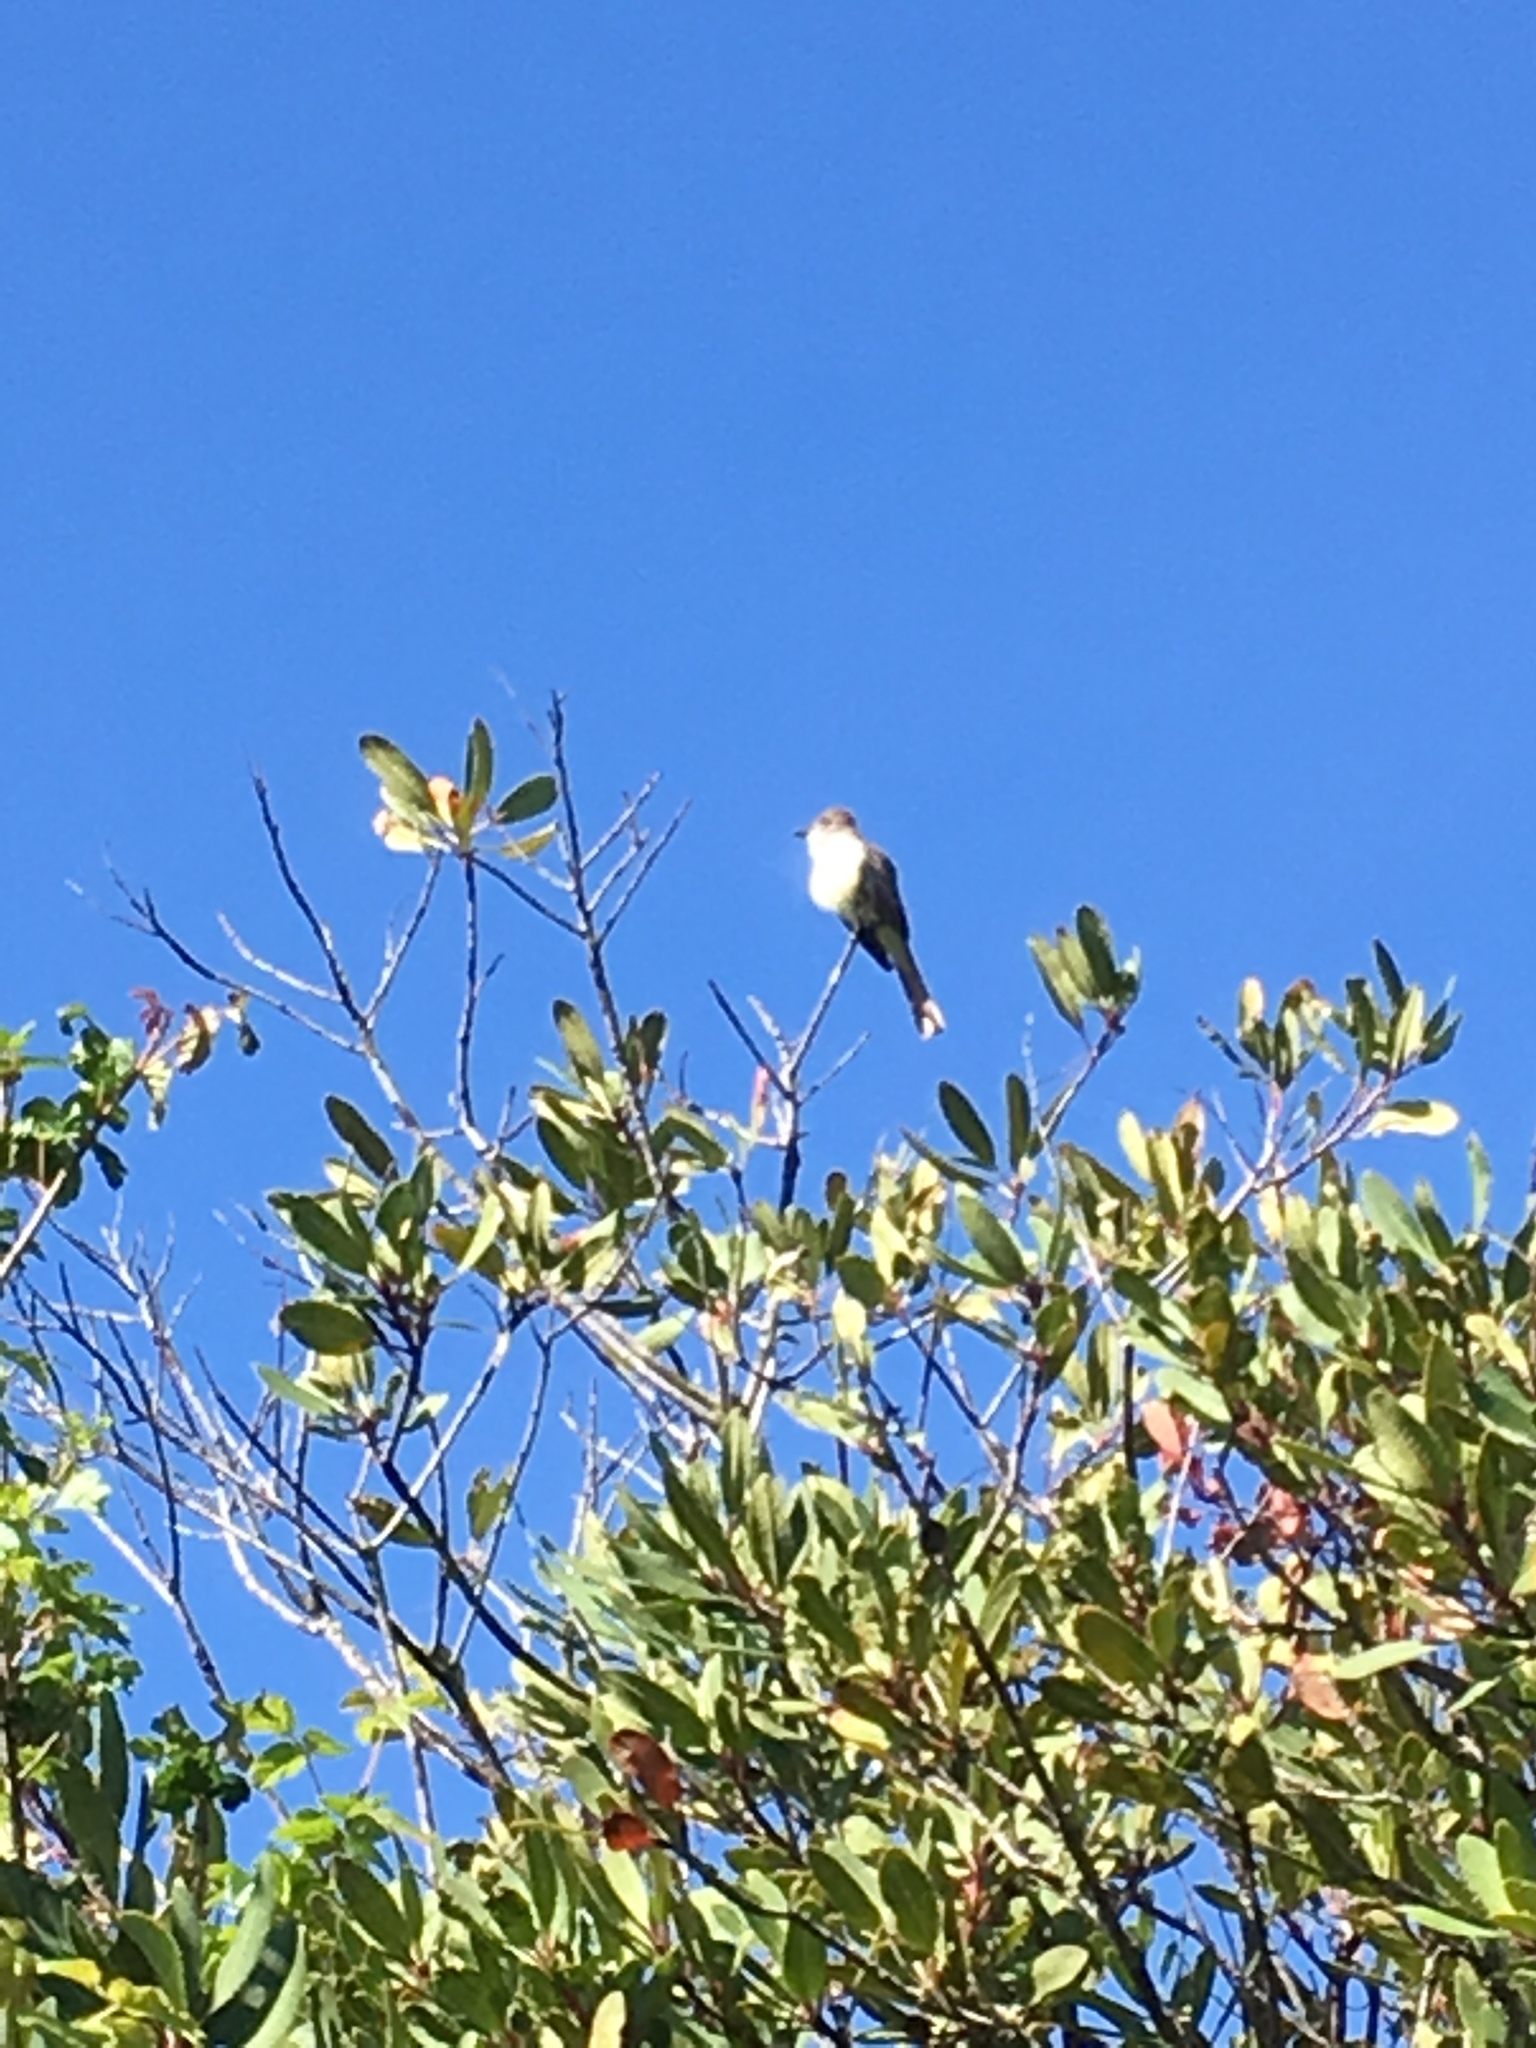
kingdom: Animalia
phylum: Chordata
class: Aves
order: Passeriformes
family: Tyrannidae
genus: Myiarchus
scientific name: Myiarchus cinerascens
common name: Ash-throated flycatcher
